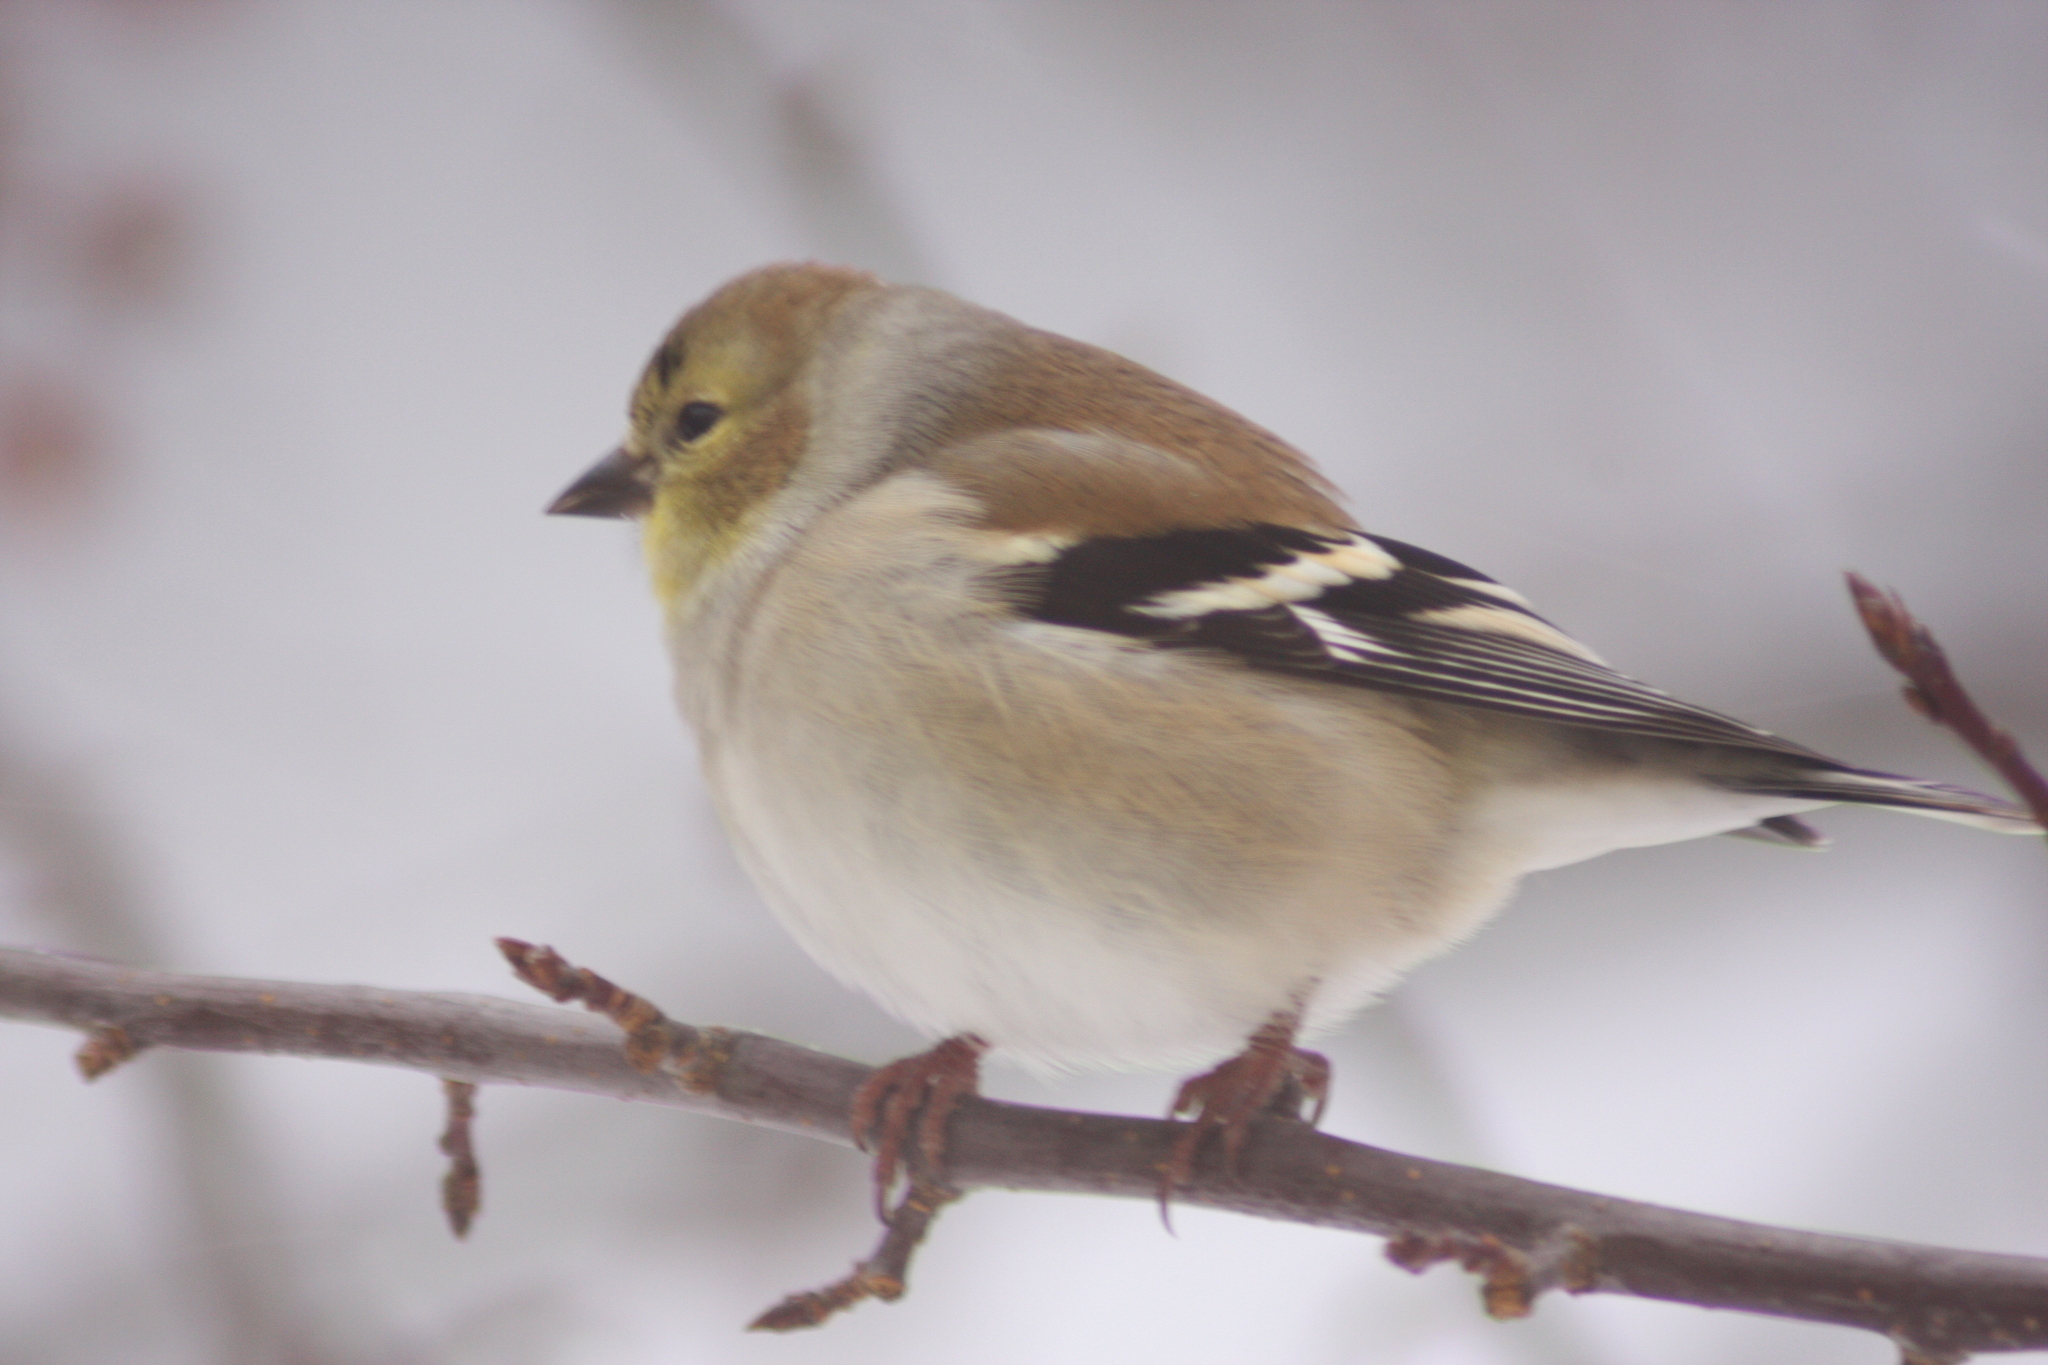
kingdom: Animalia
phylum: Chordata
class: Aves
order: Passeriformes
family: Fringillidae
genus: Spinus
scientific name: Spinus tristis
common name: American goldfinch
